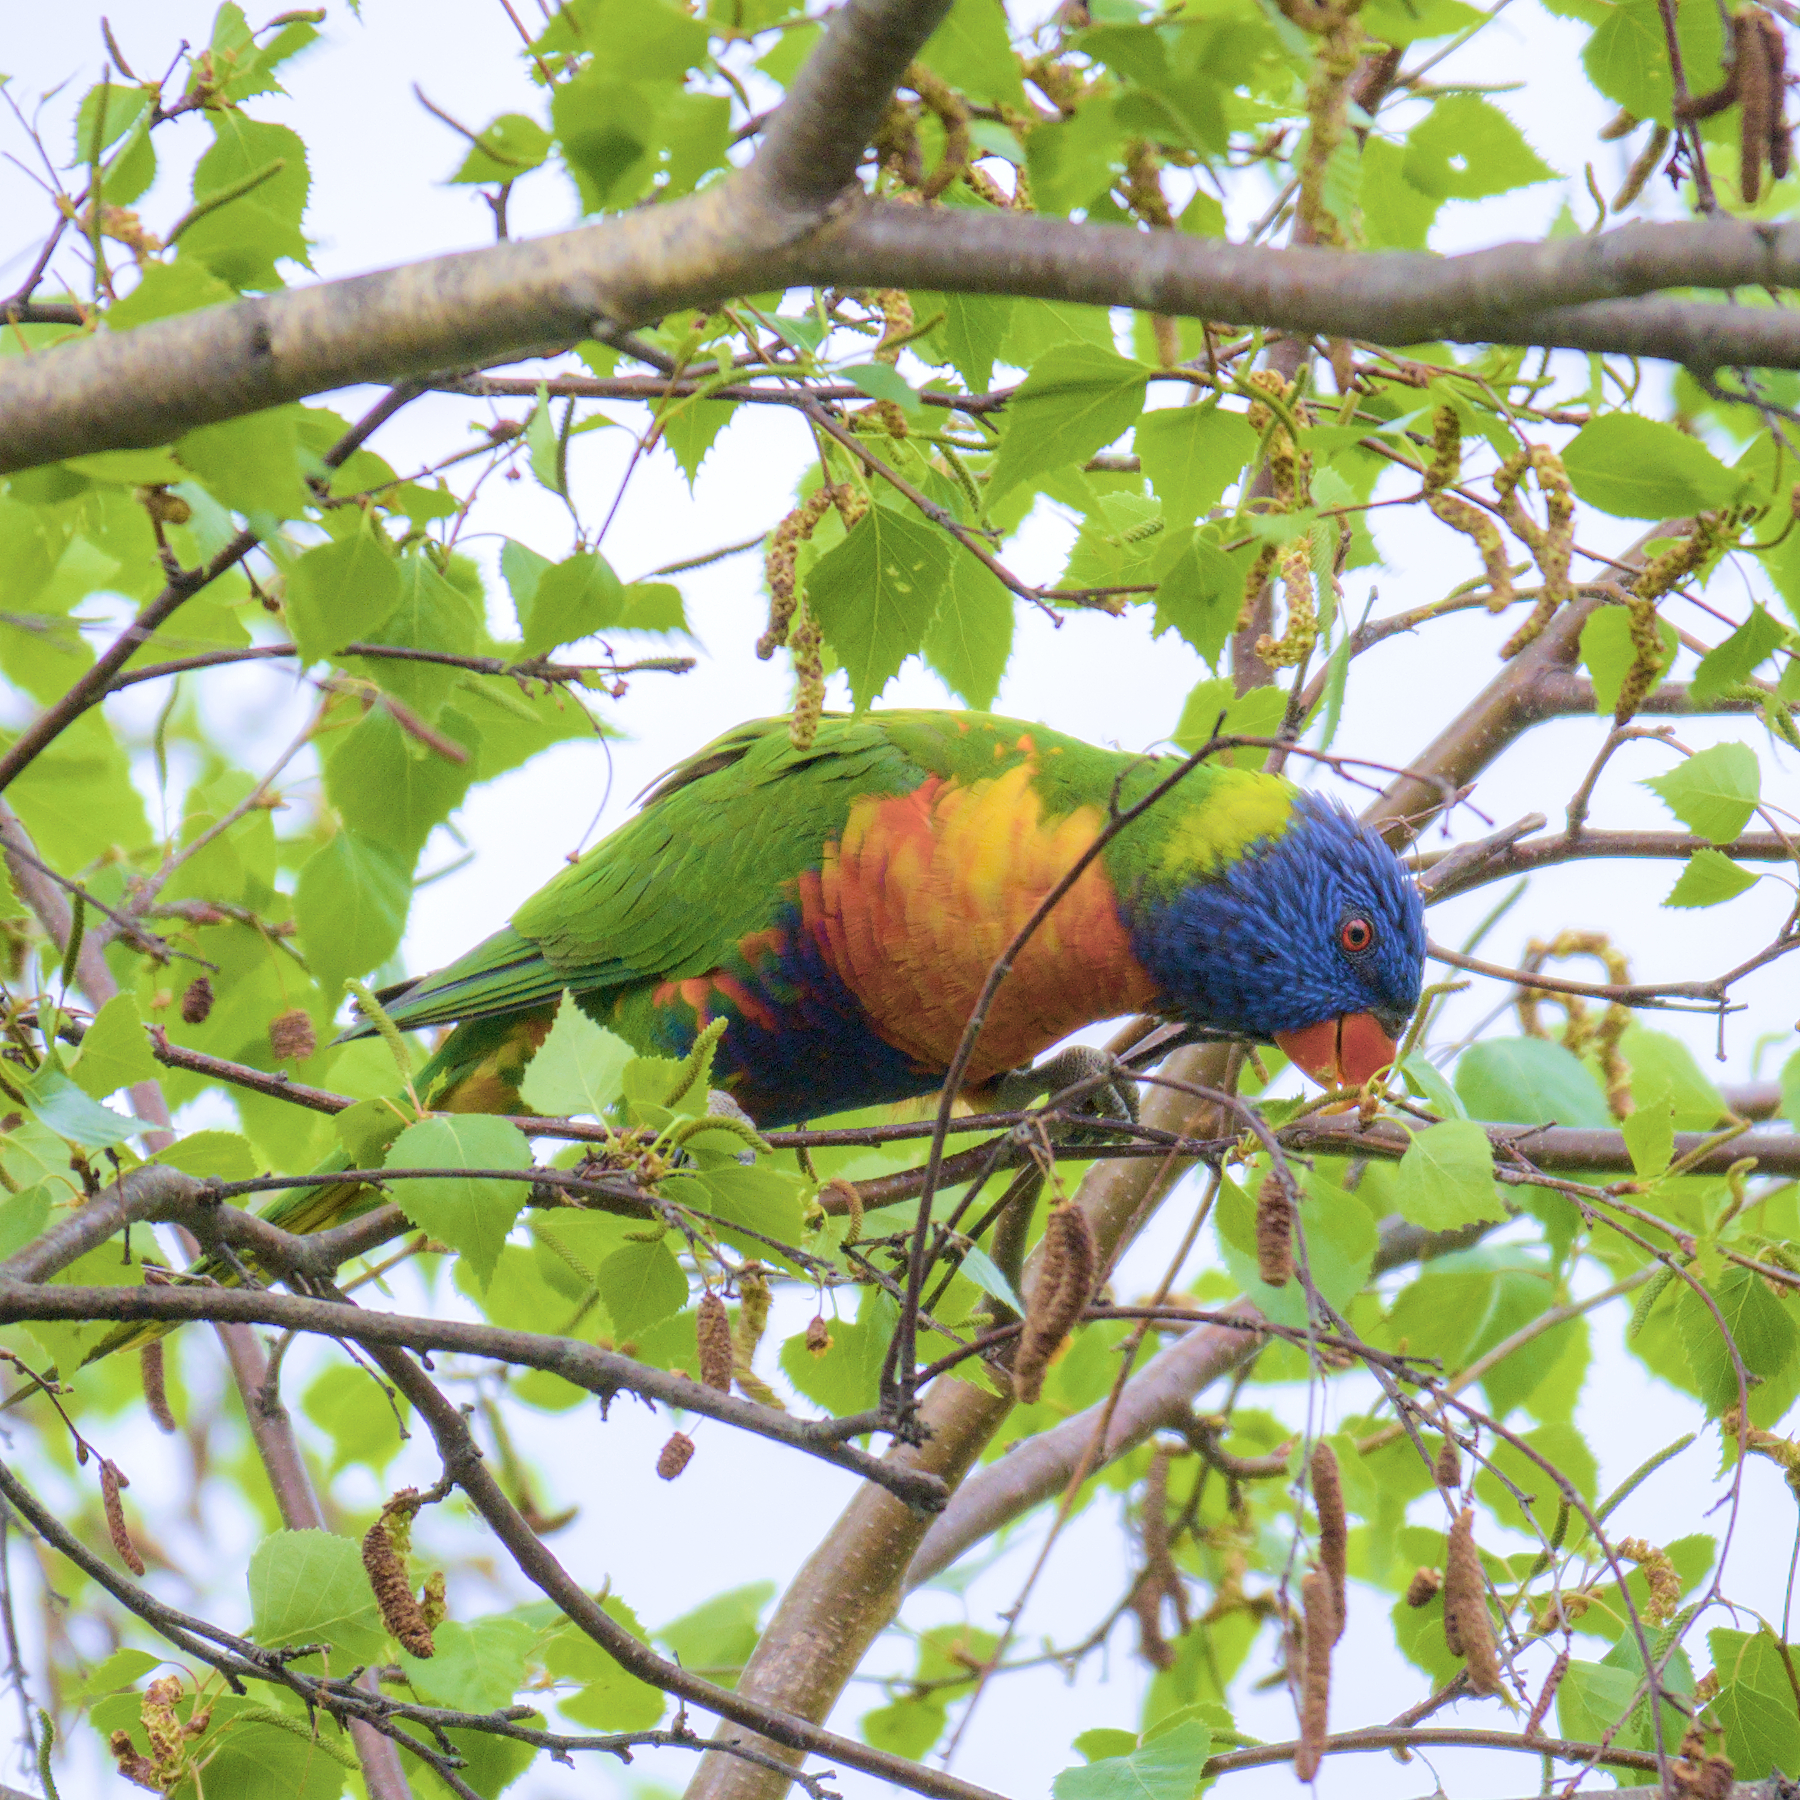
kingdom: Animalia
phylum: Chordata
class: Aves
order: Psittaciformes
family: Psittacidae
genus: Trichoglossus
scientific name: Trichoglossus haematodus
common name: Coconut lorikeet
